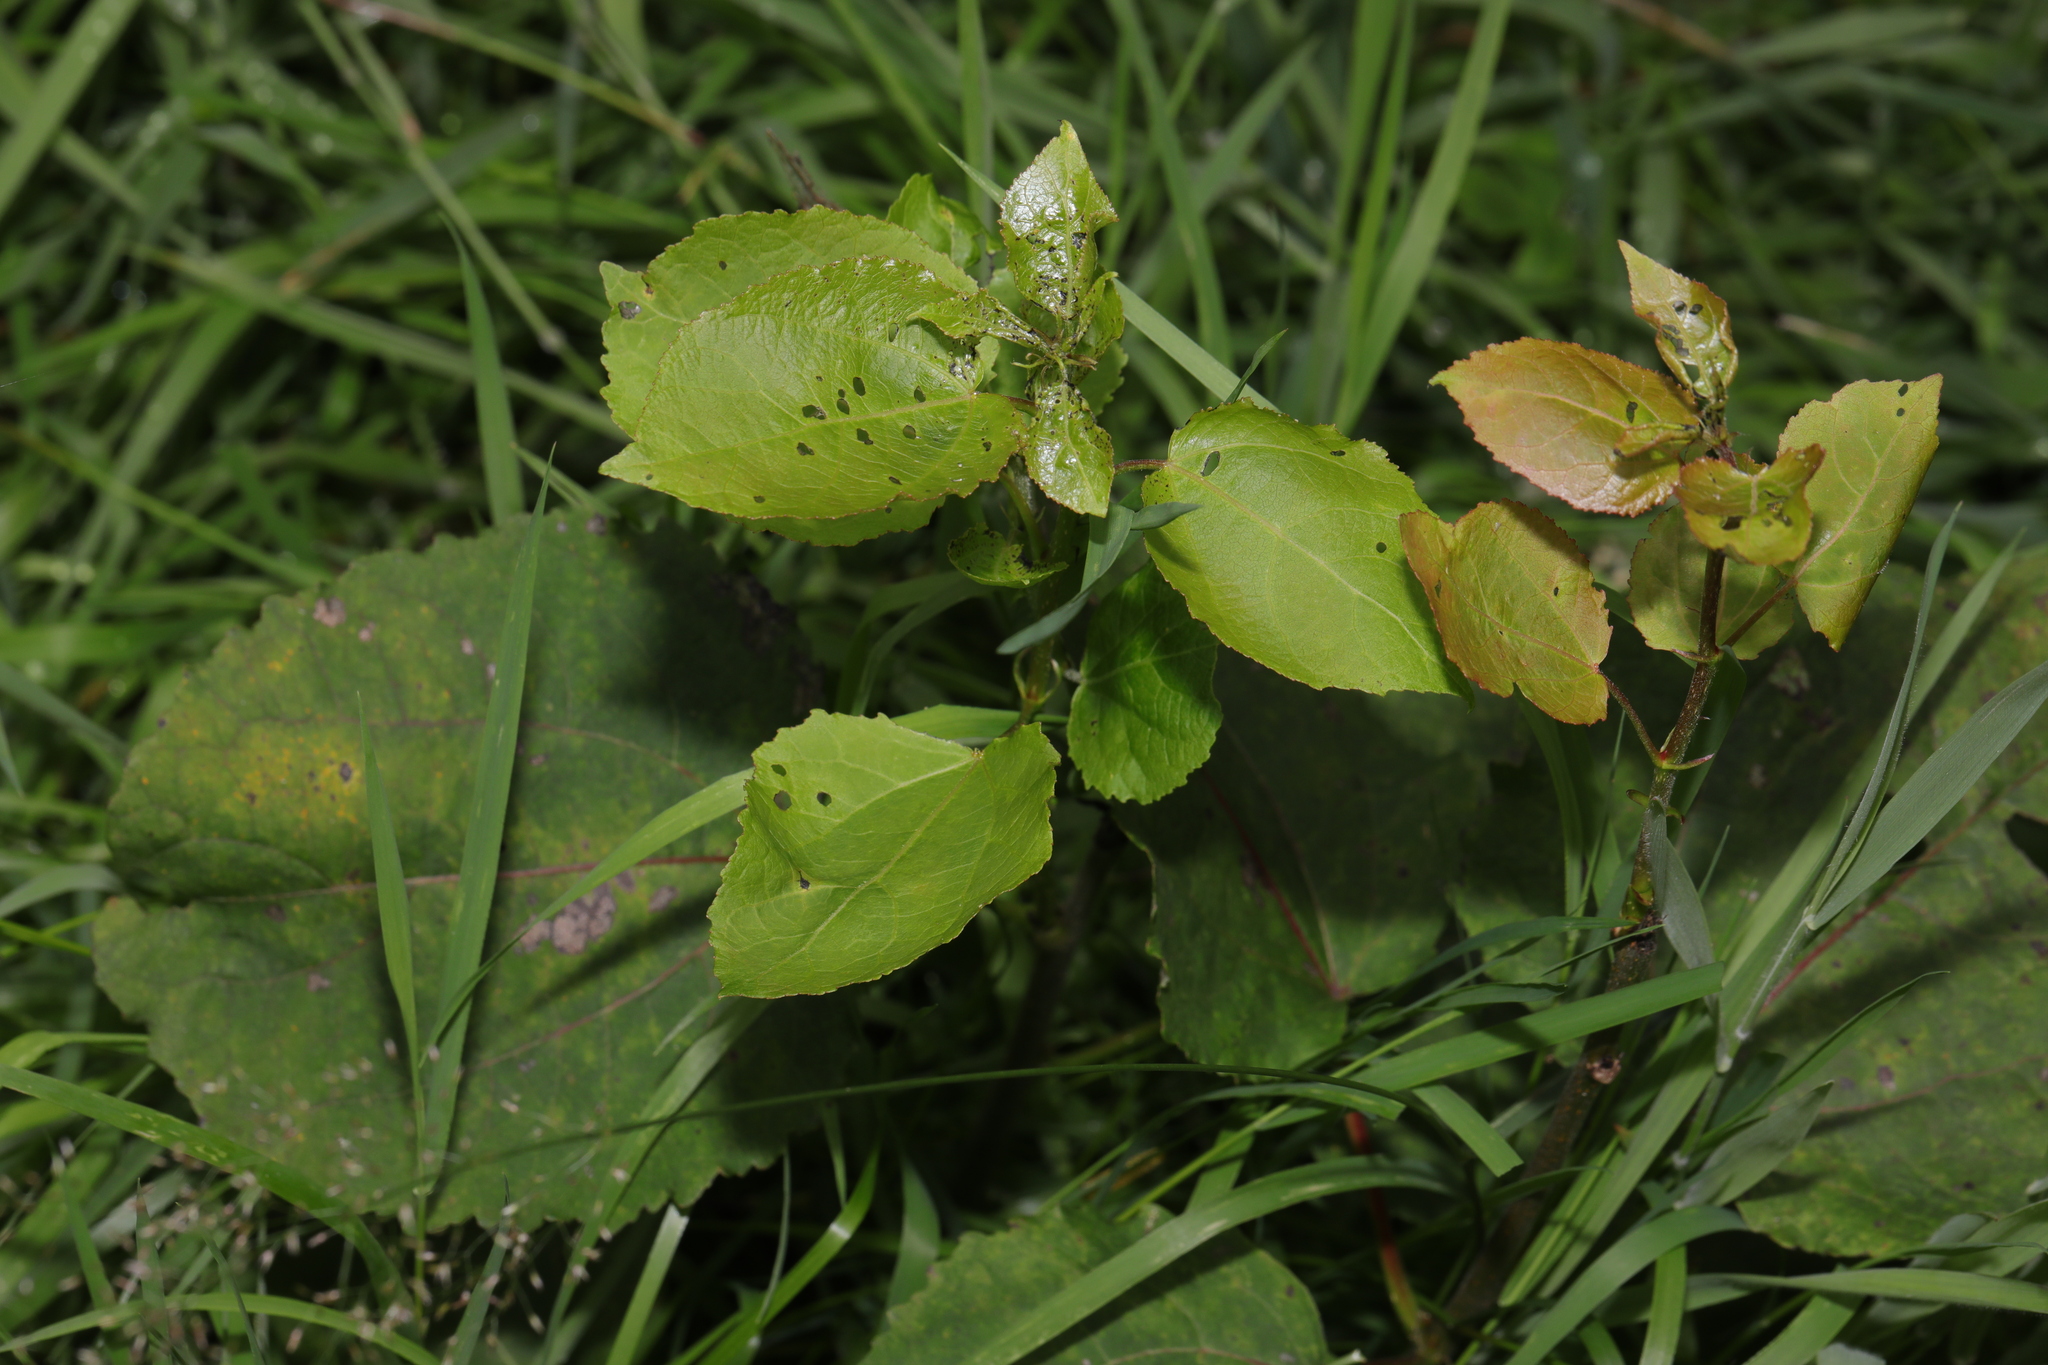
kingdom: Plantae
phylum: Tracheophyta
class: Magnoliopsida
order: Malpighiales
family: Salicaceae
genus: Populus
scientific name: Populus tremula
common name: European aspen
